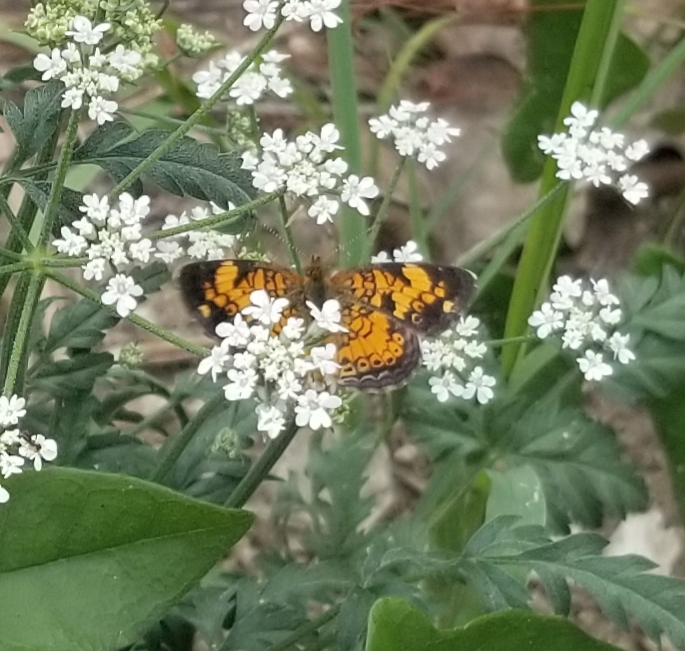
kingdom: Animalia
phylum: Arthropoda
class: Insecta
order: Lepidoptera
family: Nymphalidae
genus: Phyciodes
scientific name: Phyciodes tharos
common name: Pearl crescent
